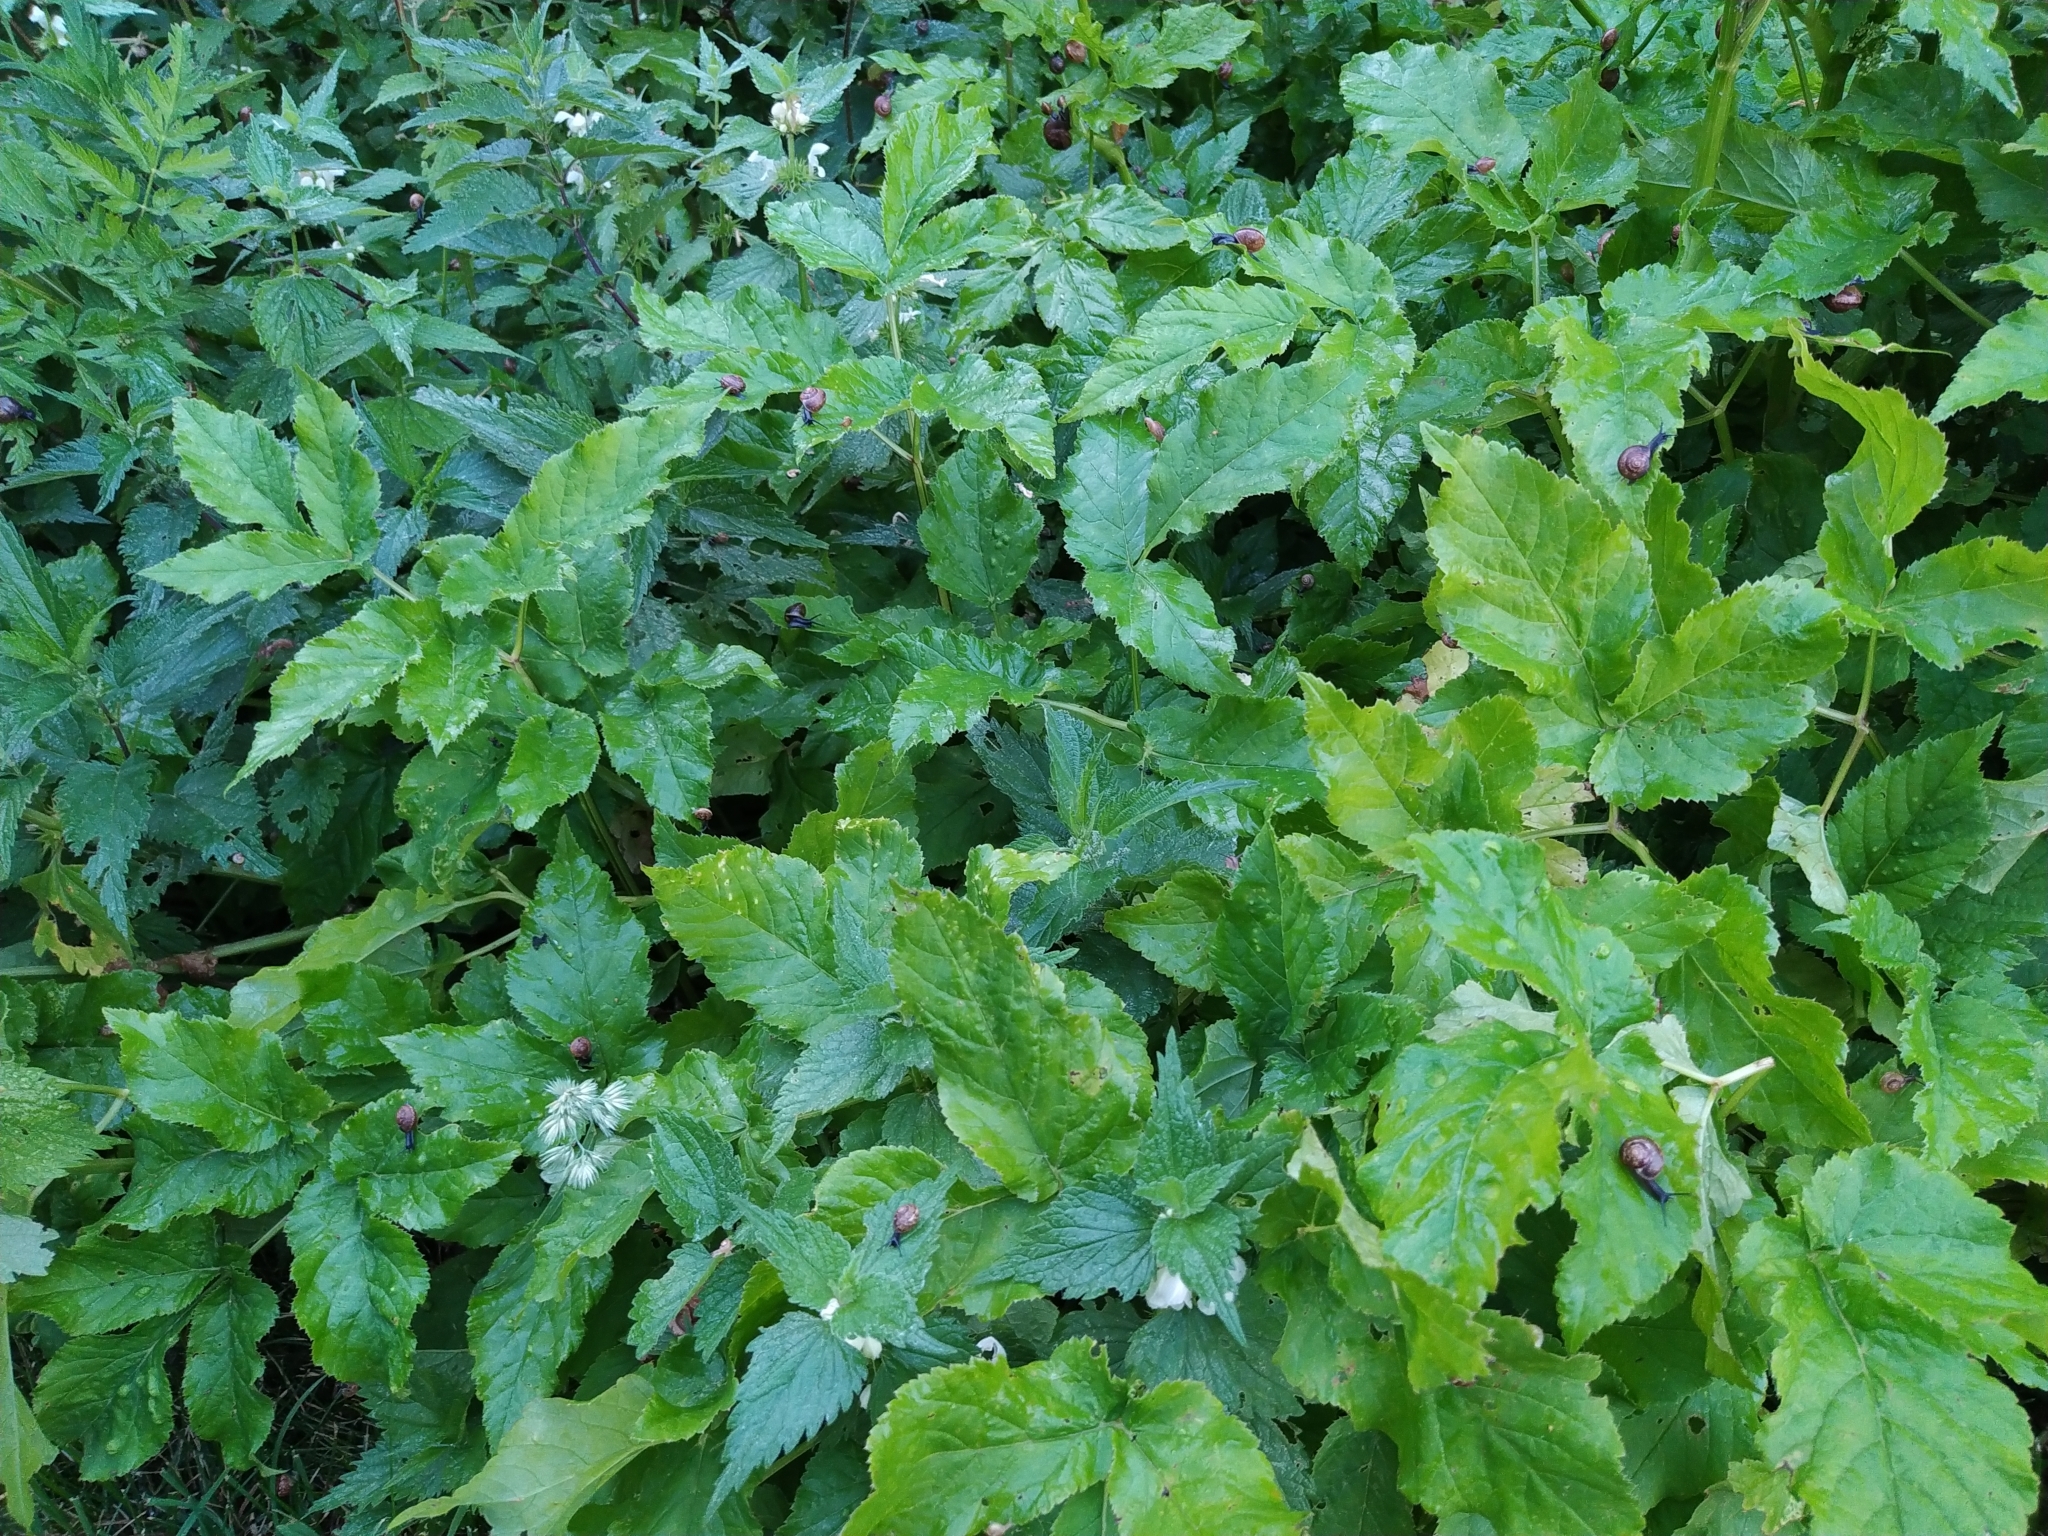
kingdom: Animalia
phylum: Mollusca
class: Gastropoda
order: Stylommatophora
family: Helicidae
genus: Arianta
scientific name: Arianta arbustorum
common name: Copse snail
